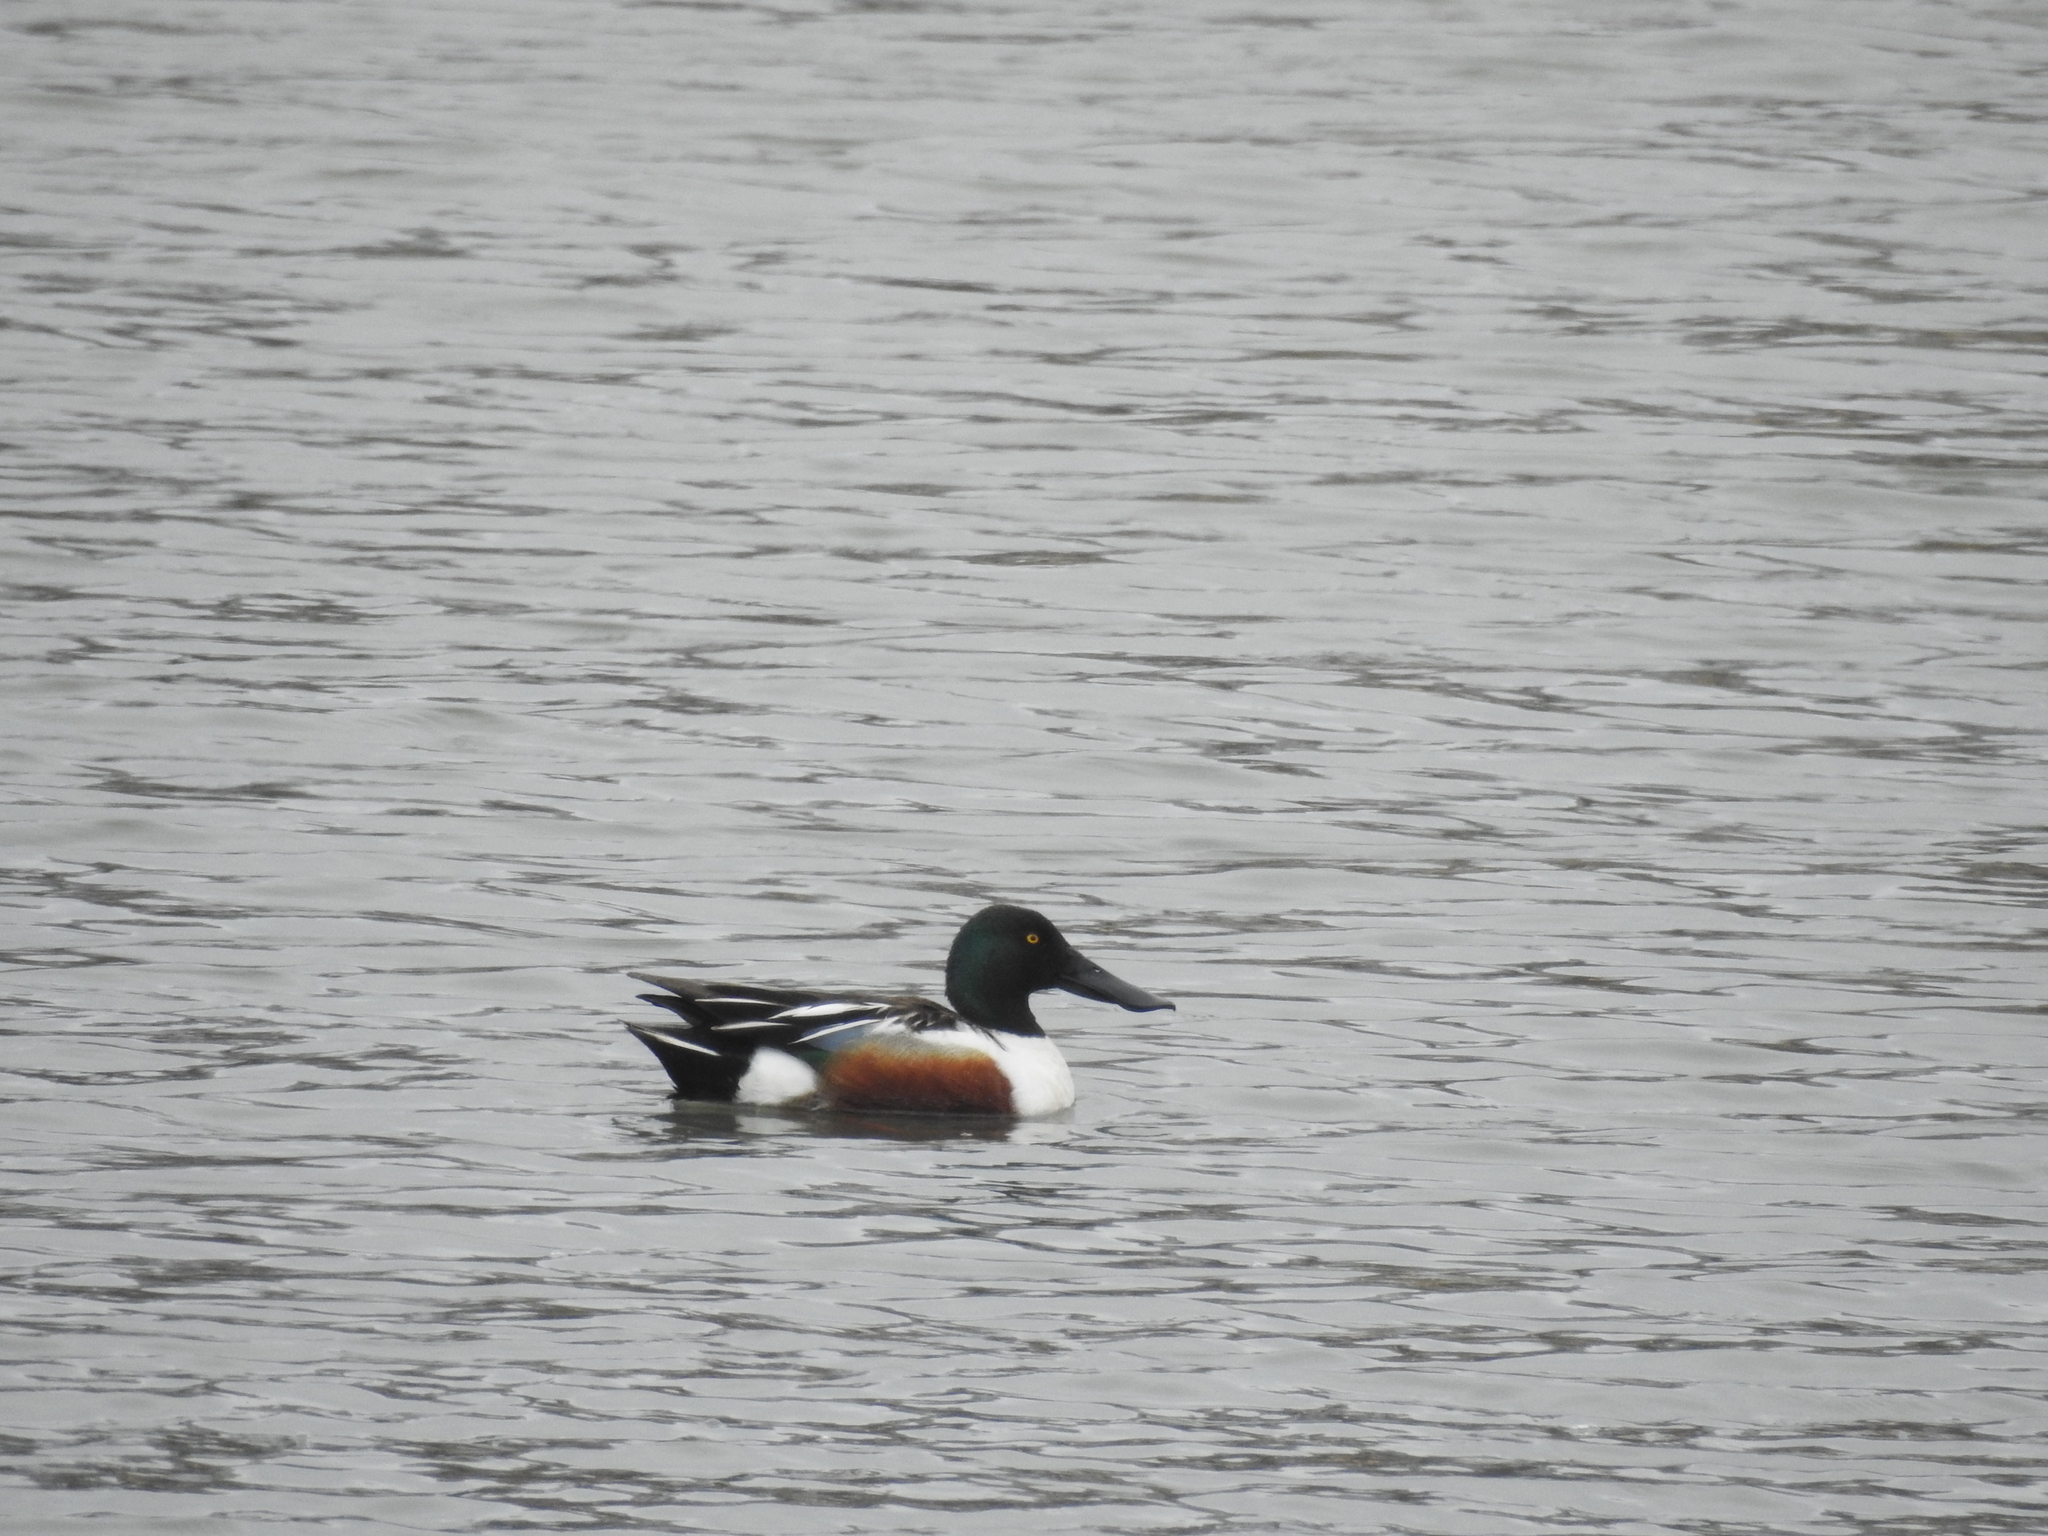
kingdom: Animalia
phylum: Chordata
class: Aves
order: Anseriformes
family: Anatidae
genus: Spatula
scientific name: Spatula clypeata
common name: Northern shoveler
